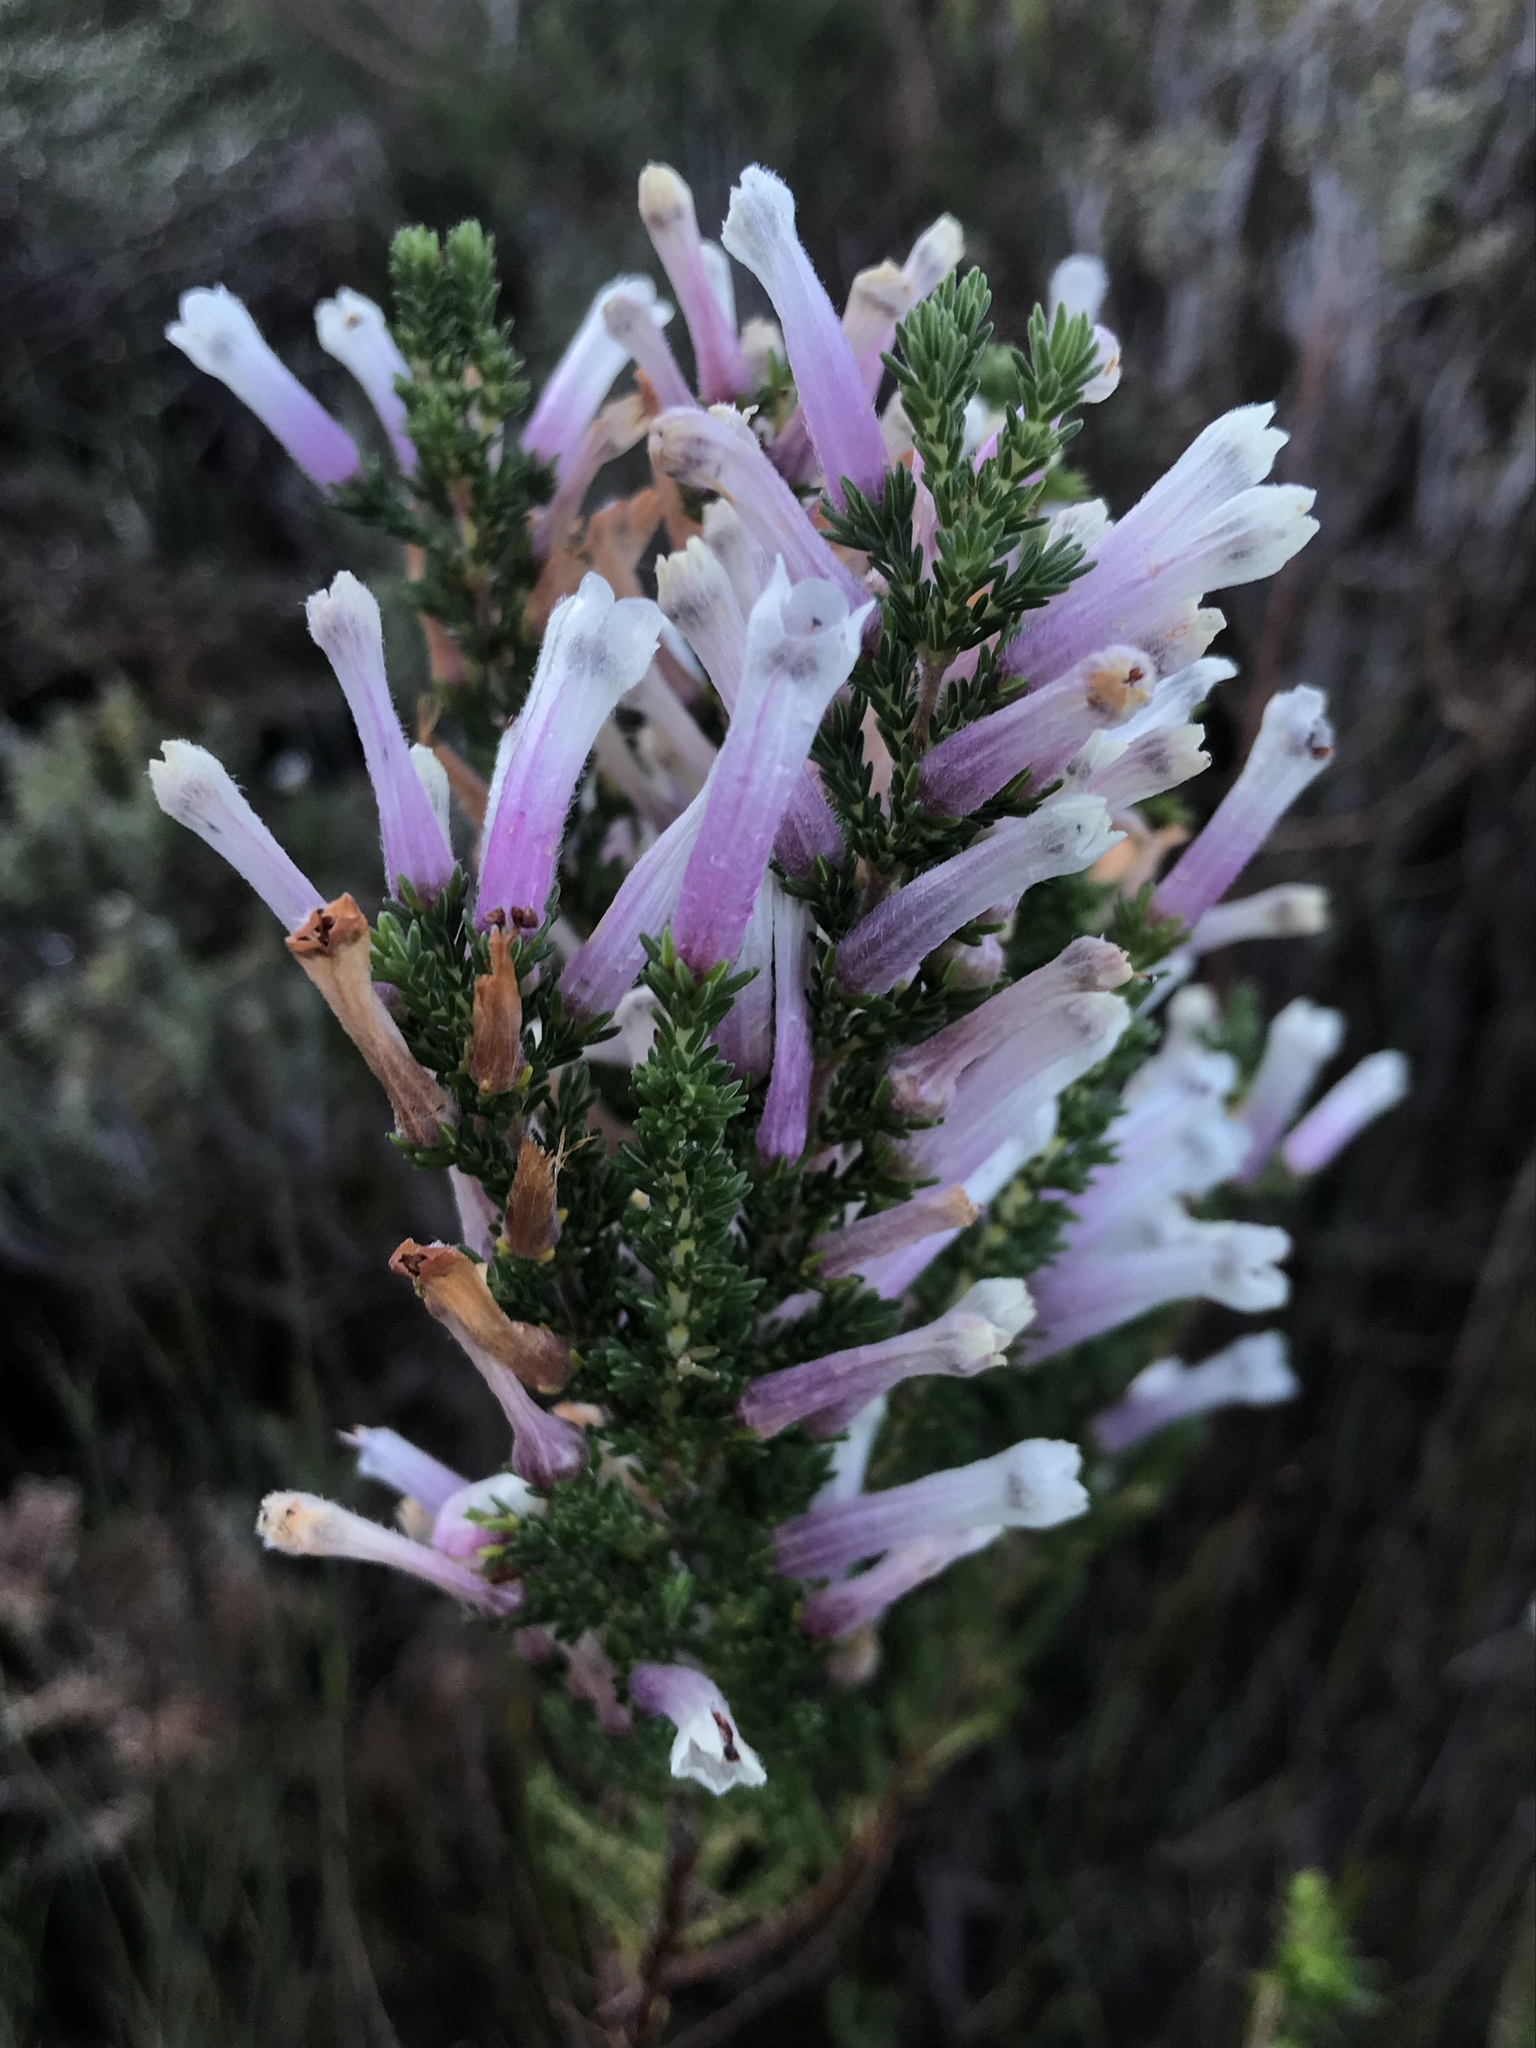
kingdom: Plantae
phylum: Tracheophyta
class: Magnoliopsida
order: Ericales
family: Ericaceae
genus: Erica
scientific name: Erica perspicua
